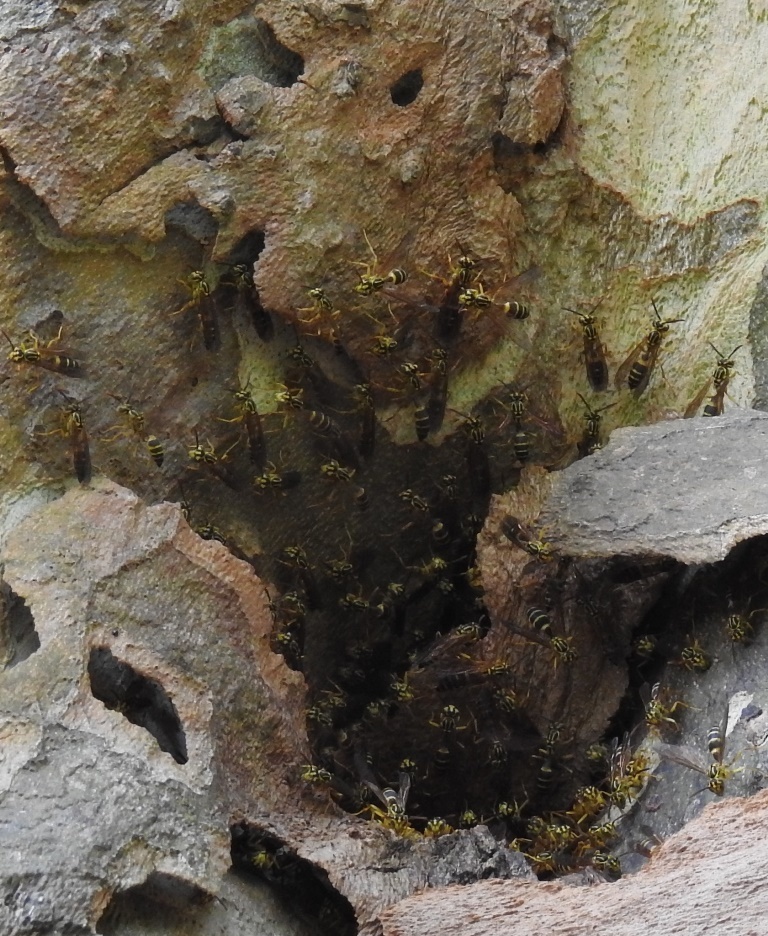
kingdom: Animalia
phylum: Arthropoda
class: Insecta
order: Hymenoptera
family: Vespidae
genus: Agelaia
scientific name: Agelaia yepocapa
